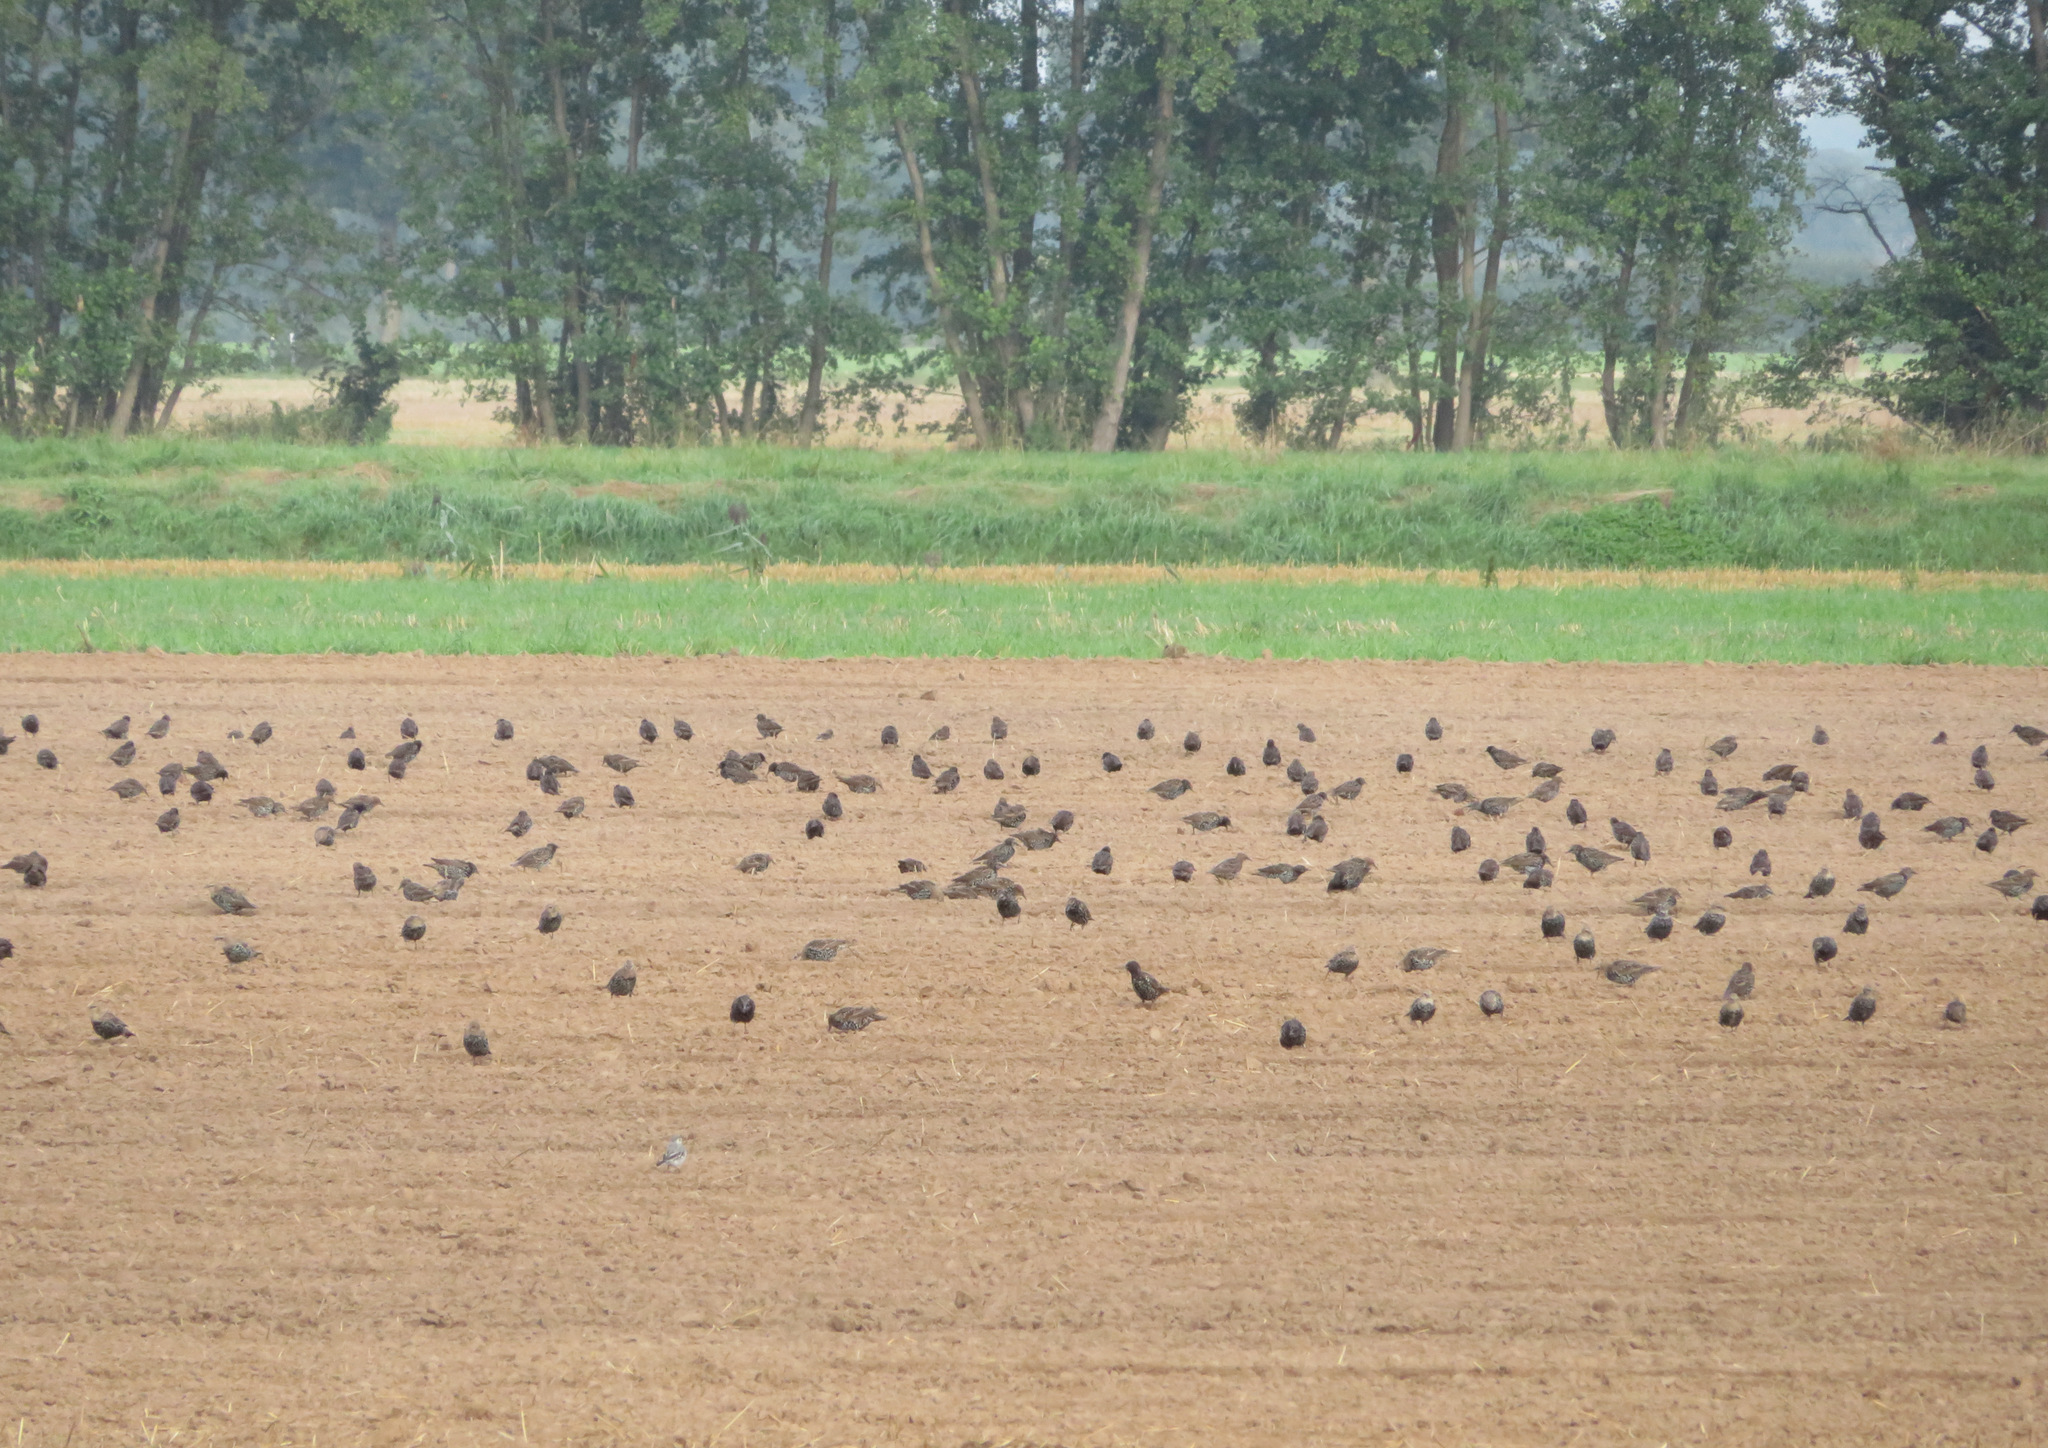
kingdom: Animalia
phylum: Chordata
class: Aves
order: Passeriformes
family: Sturnidae
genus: Sturnus
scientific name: Sturnus vulgaris
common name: Common starling
